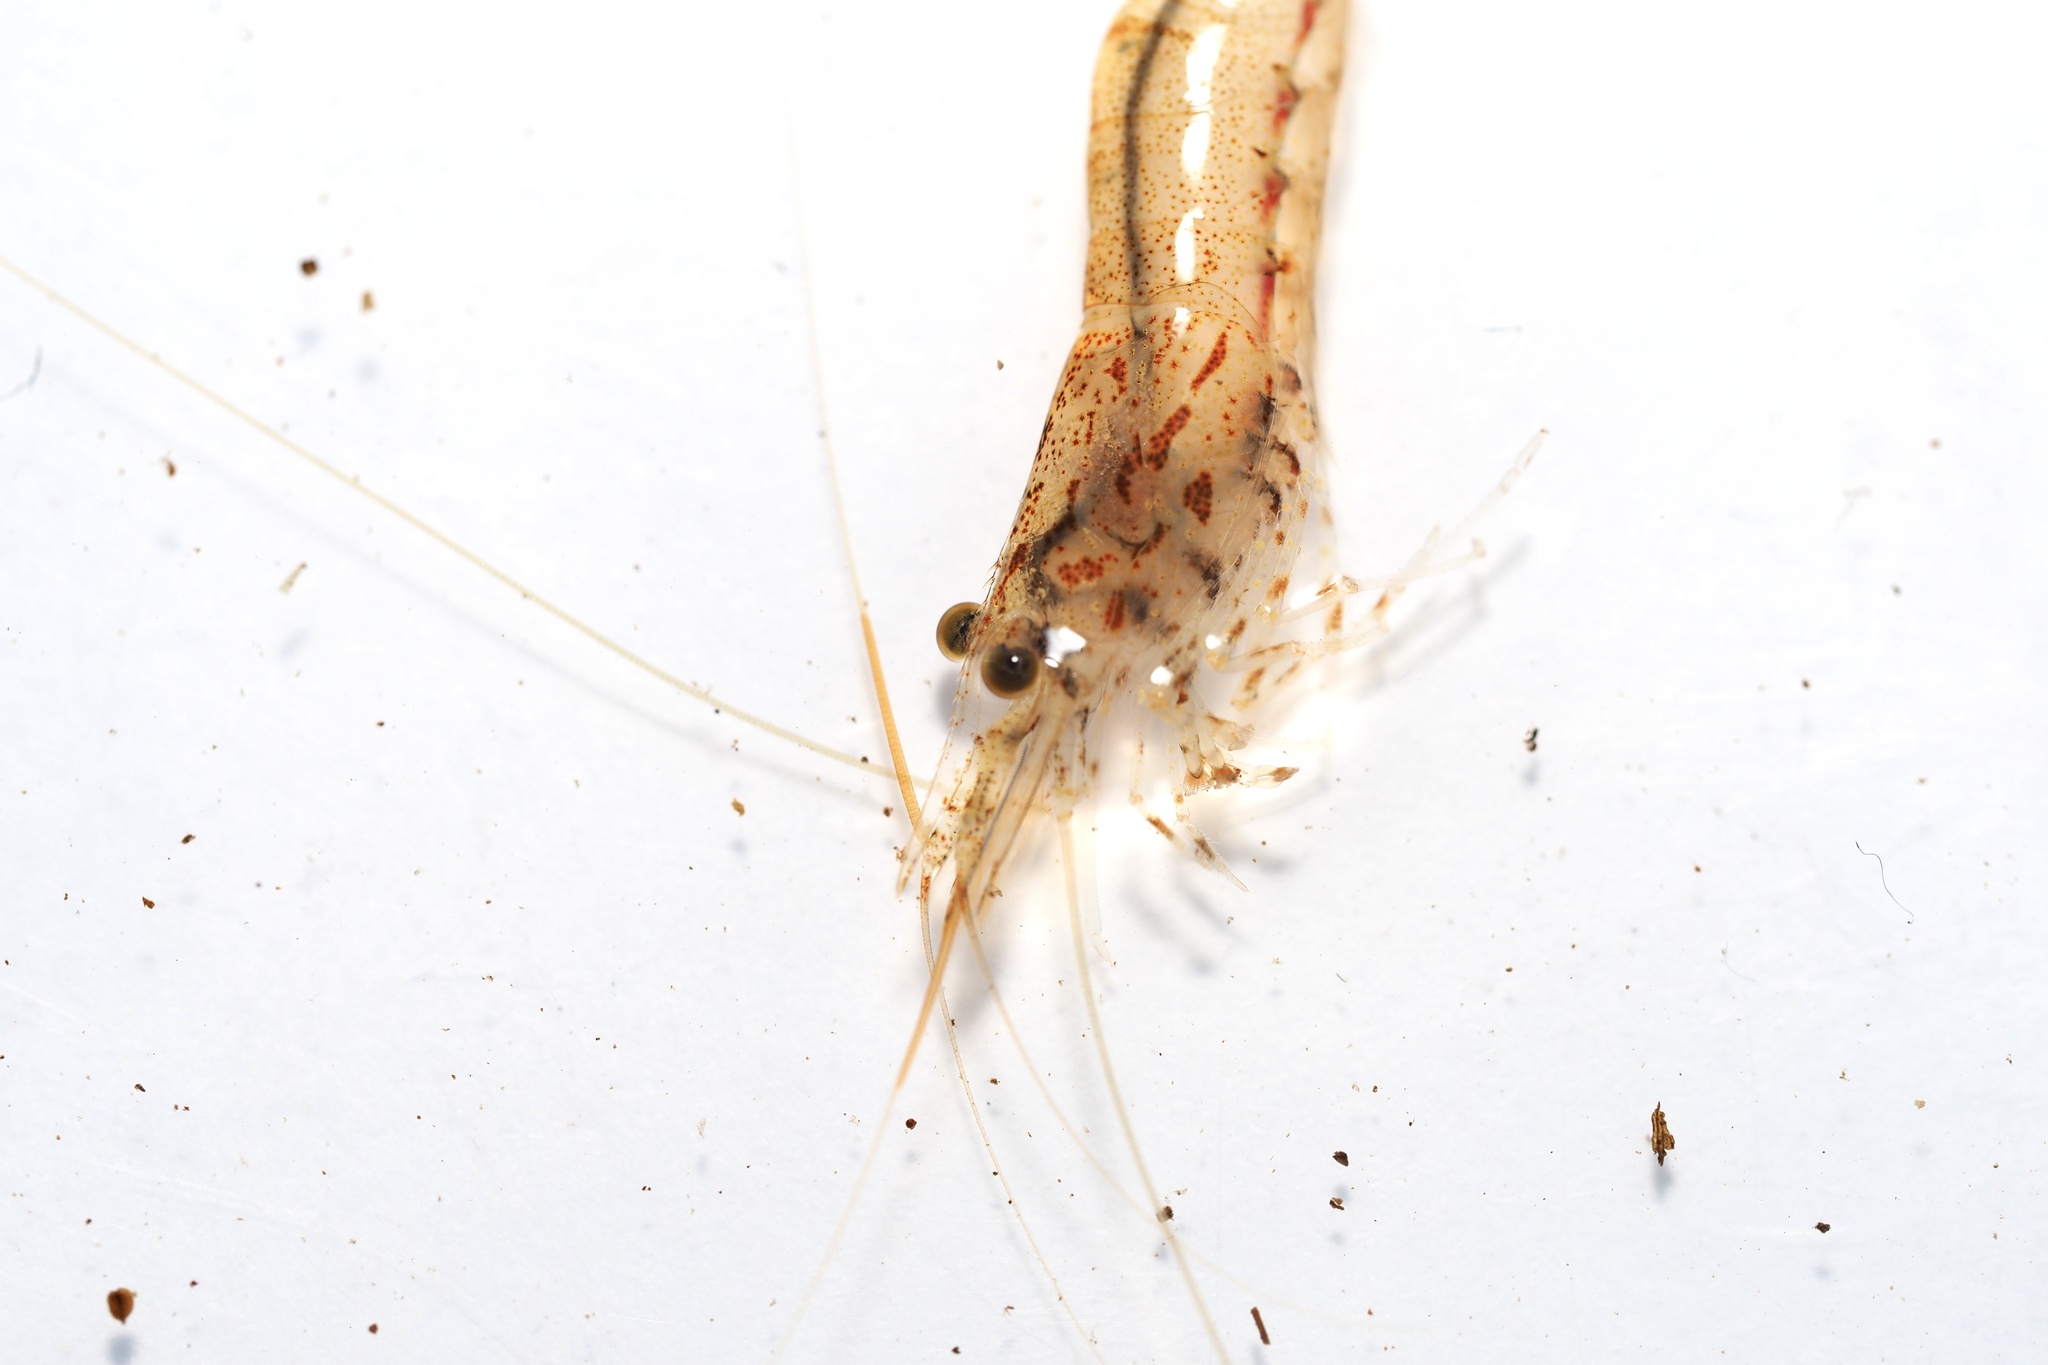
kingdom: Animalia
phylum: Arthropoda
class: Malacostraca
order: Decapoda
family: Atyidae
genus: Paratya
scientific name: Paratya compressa
